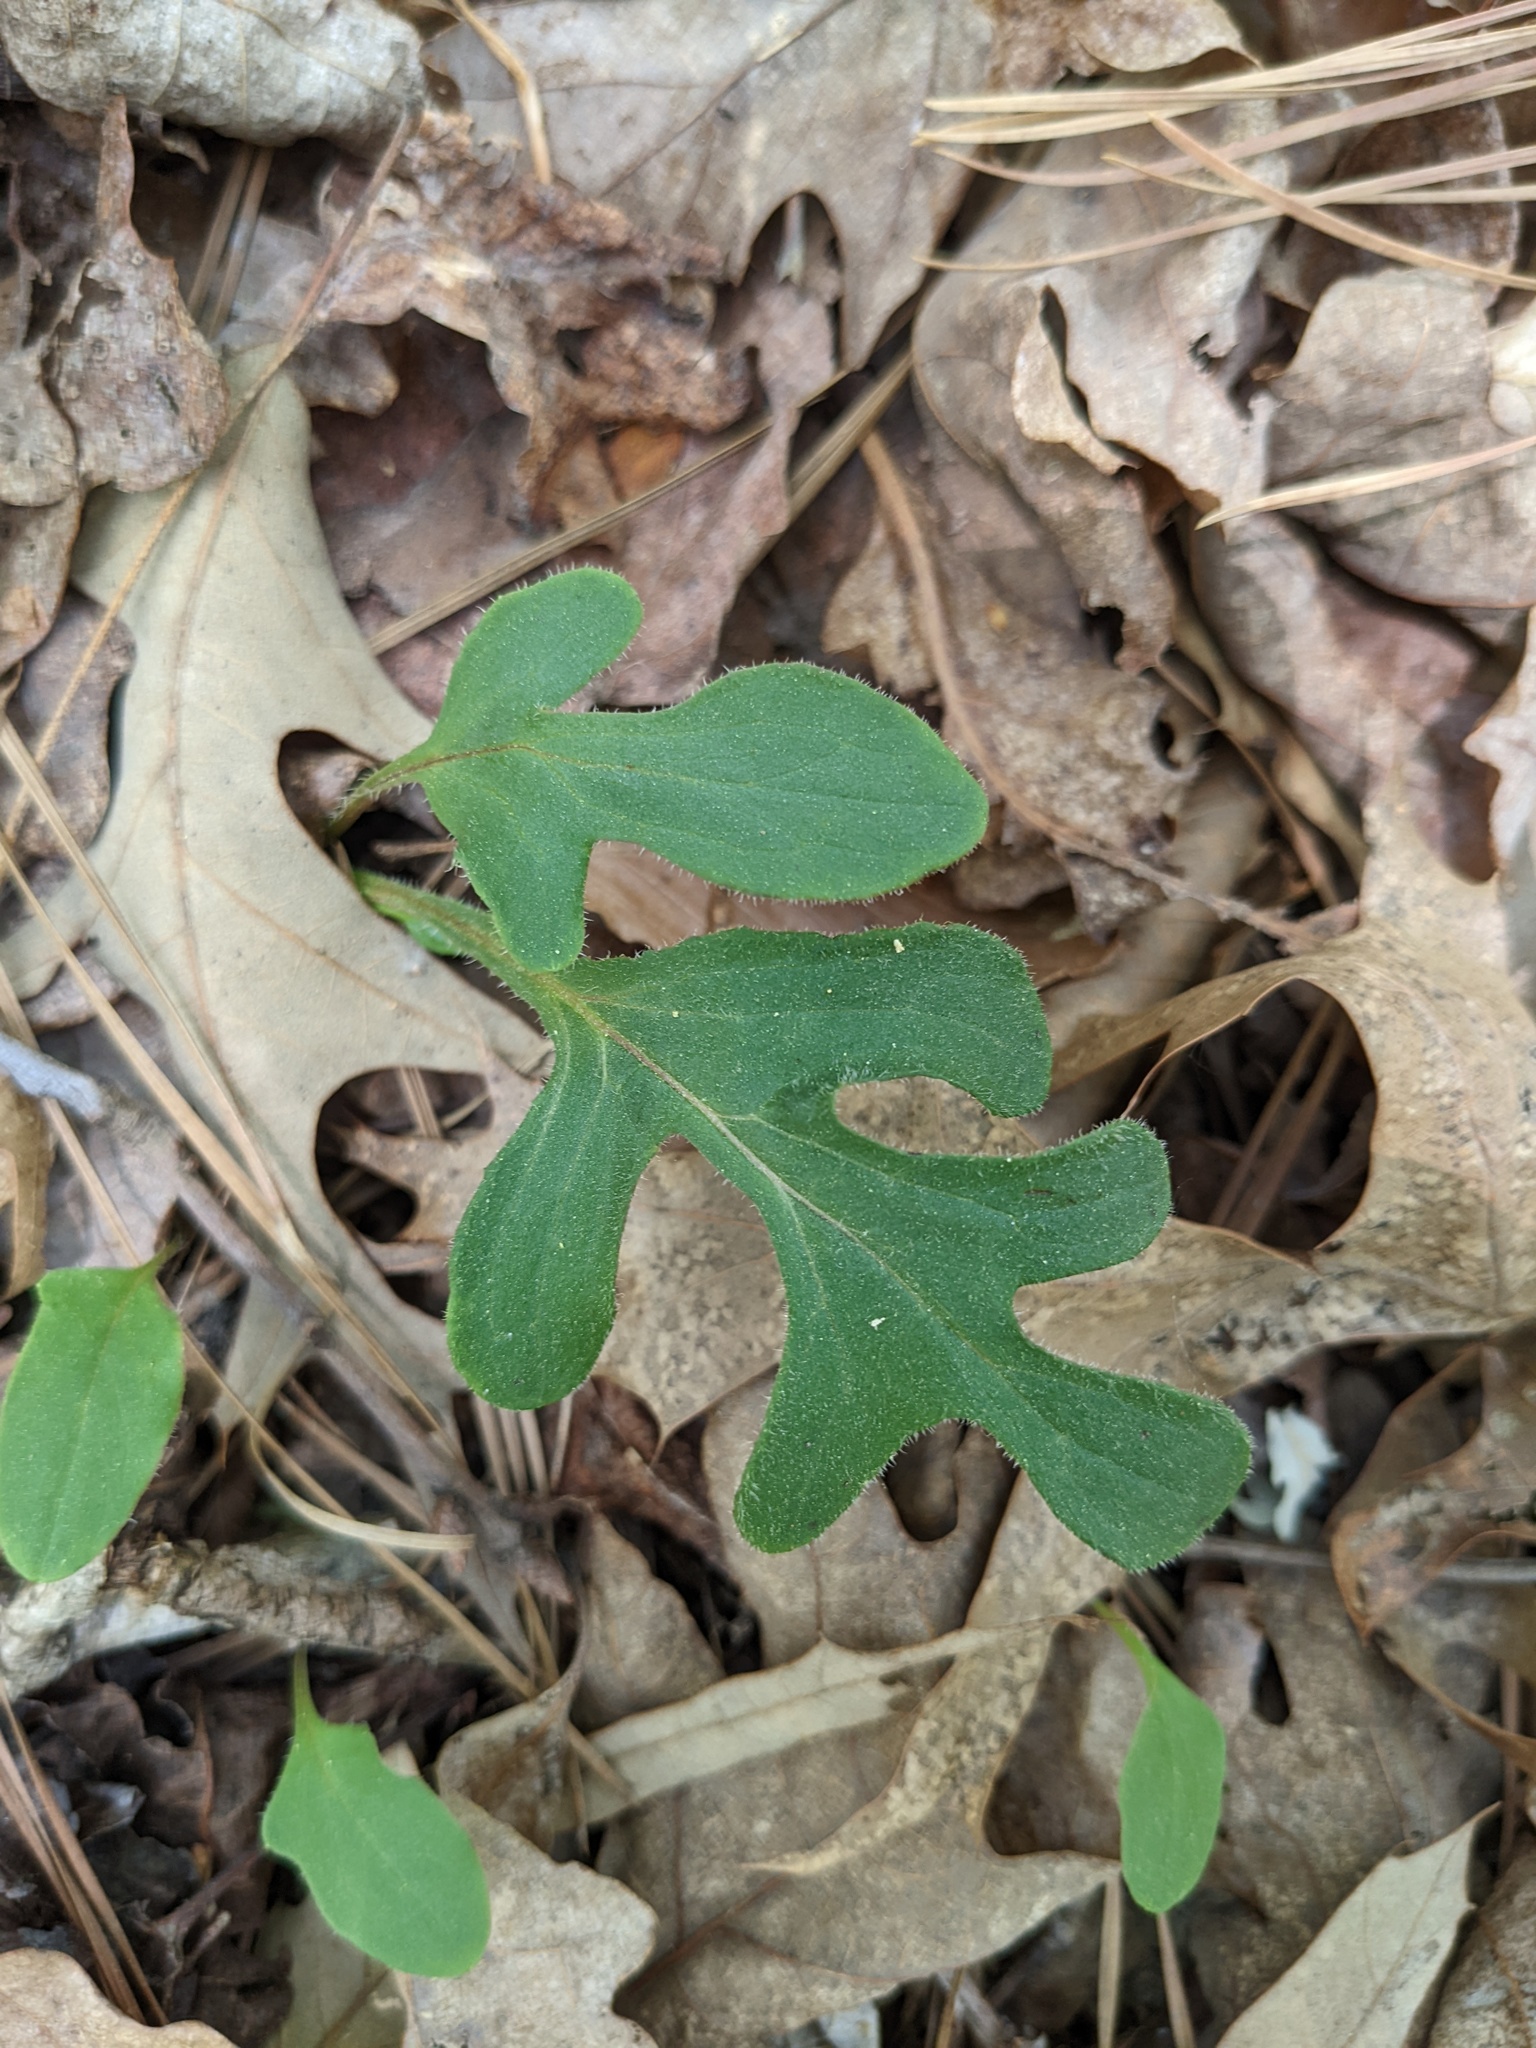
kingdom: Plantae
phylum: Tracheophyta
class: Magnoliopsida
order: Asterales
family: Asteraceae
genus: Nabalus
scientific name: Nabalus serpentarius
